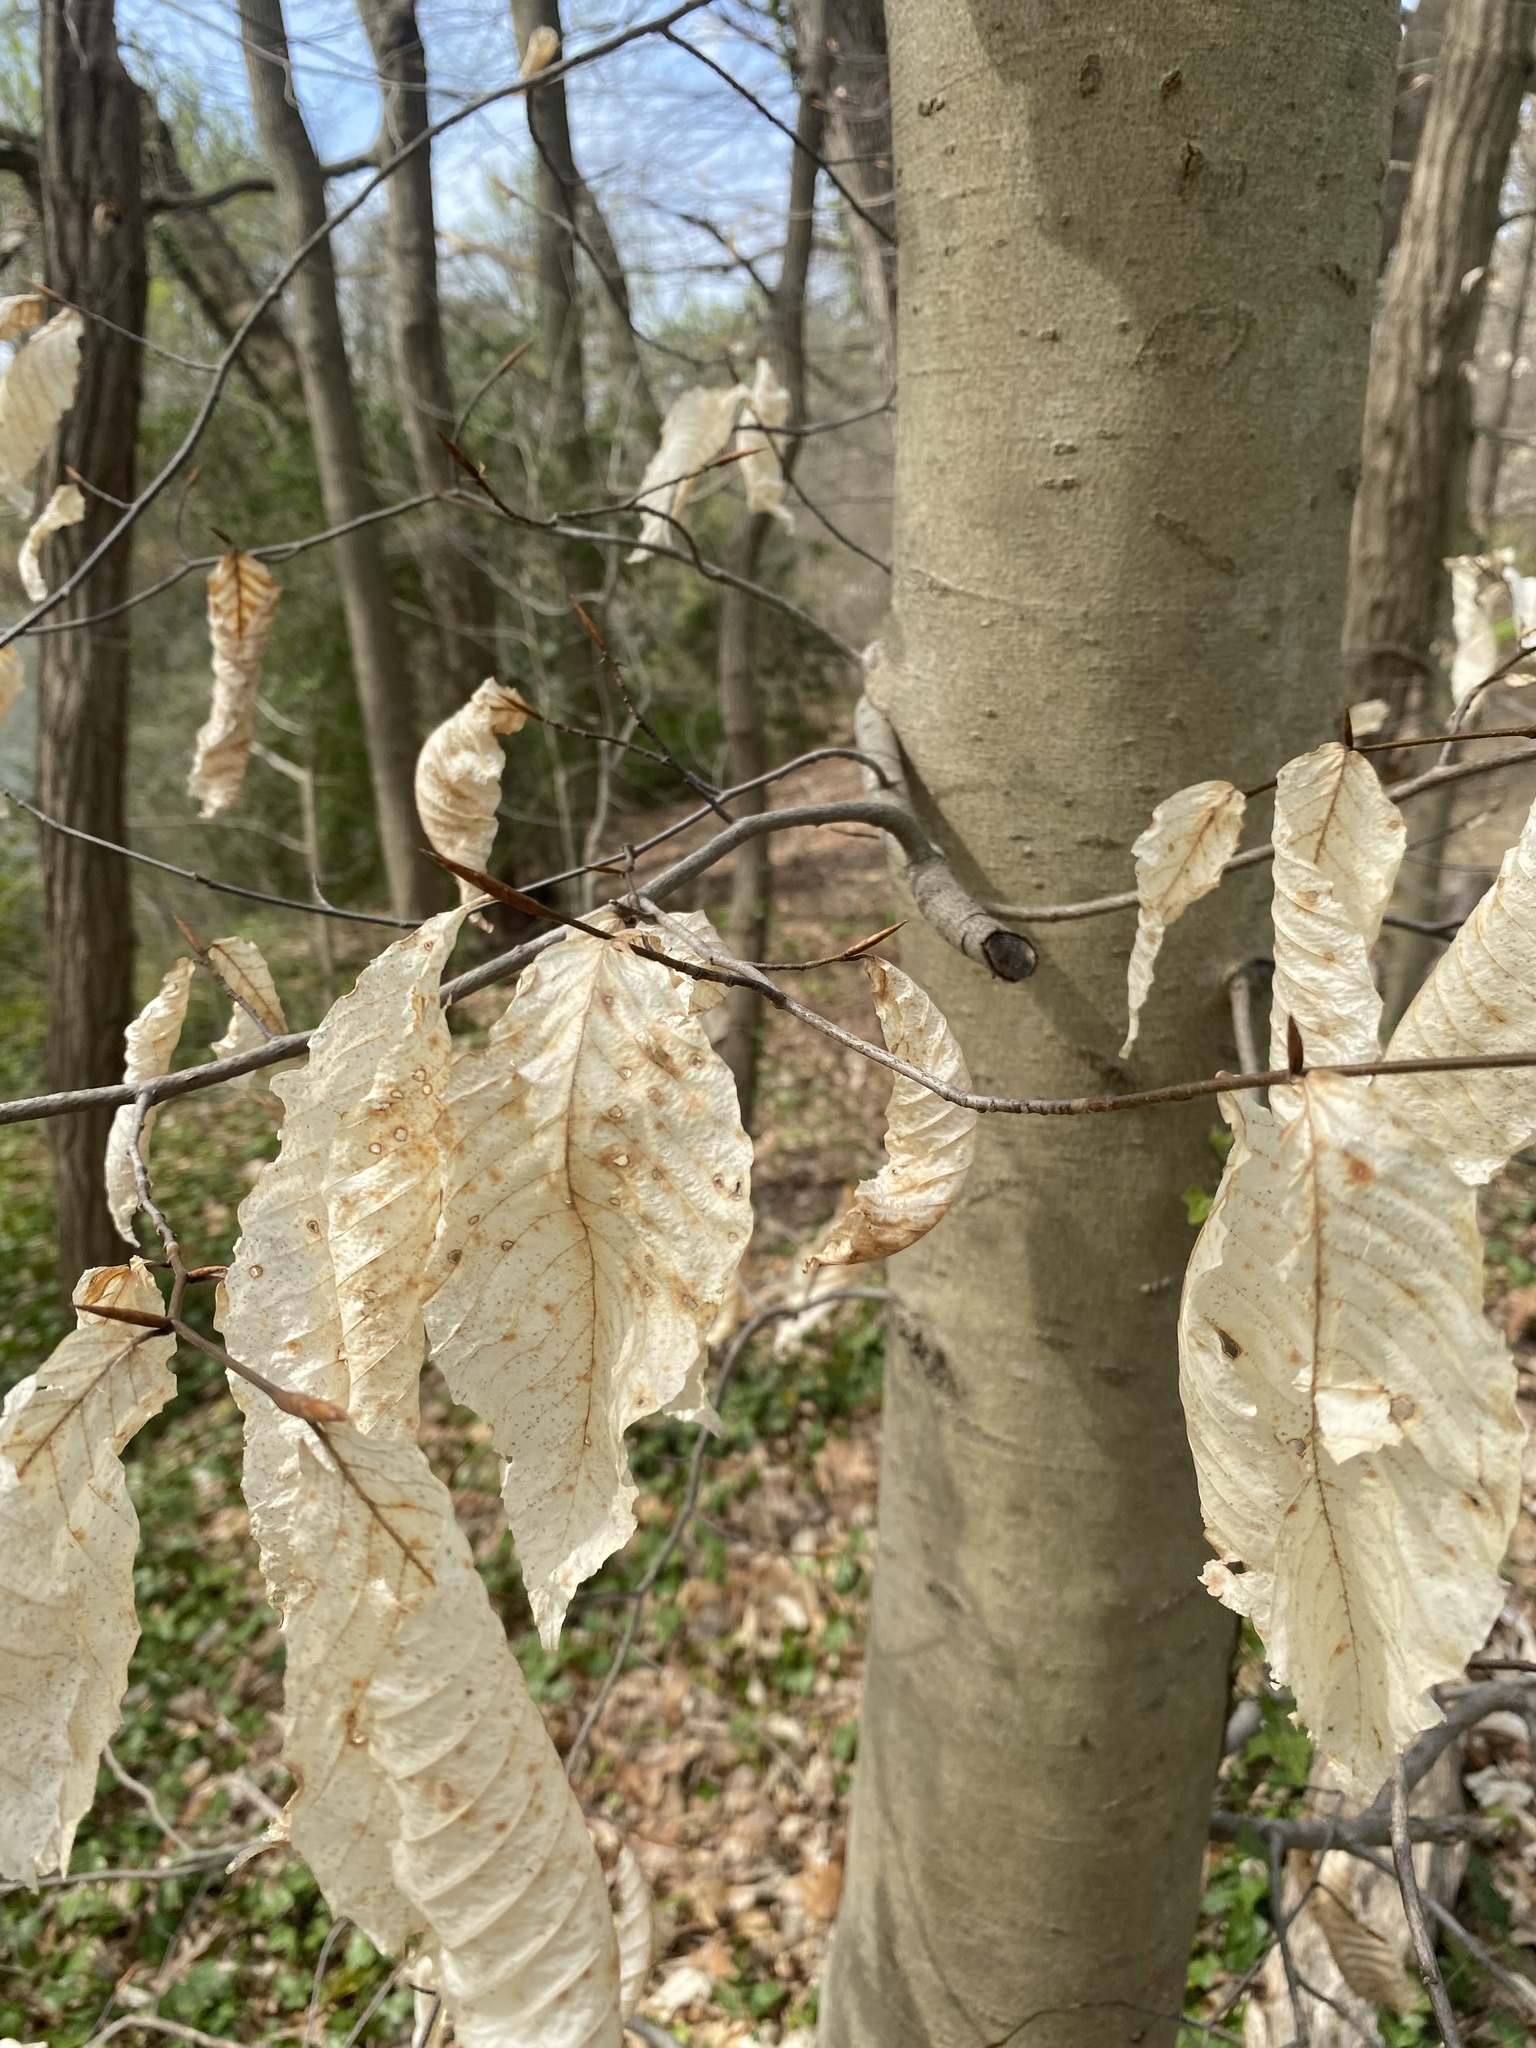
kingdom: Plantae
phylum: Tracheophyta
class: Magnoliopsida
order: Fagales
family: Fagaceae
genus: Fagus
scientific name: Fagus grandifolia
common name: American beech
